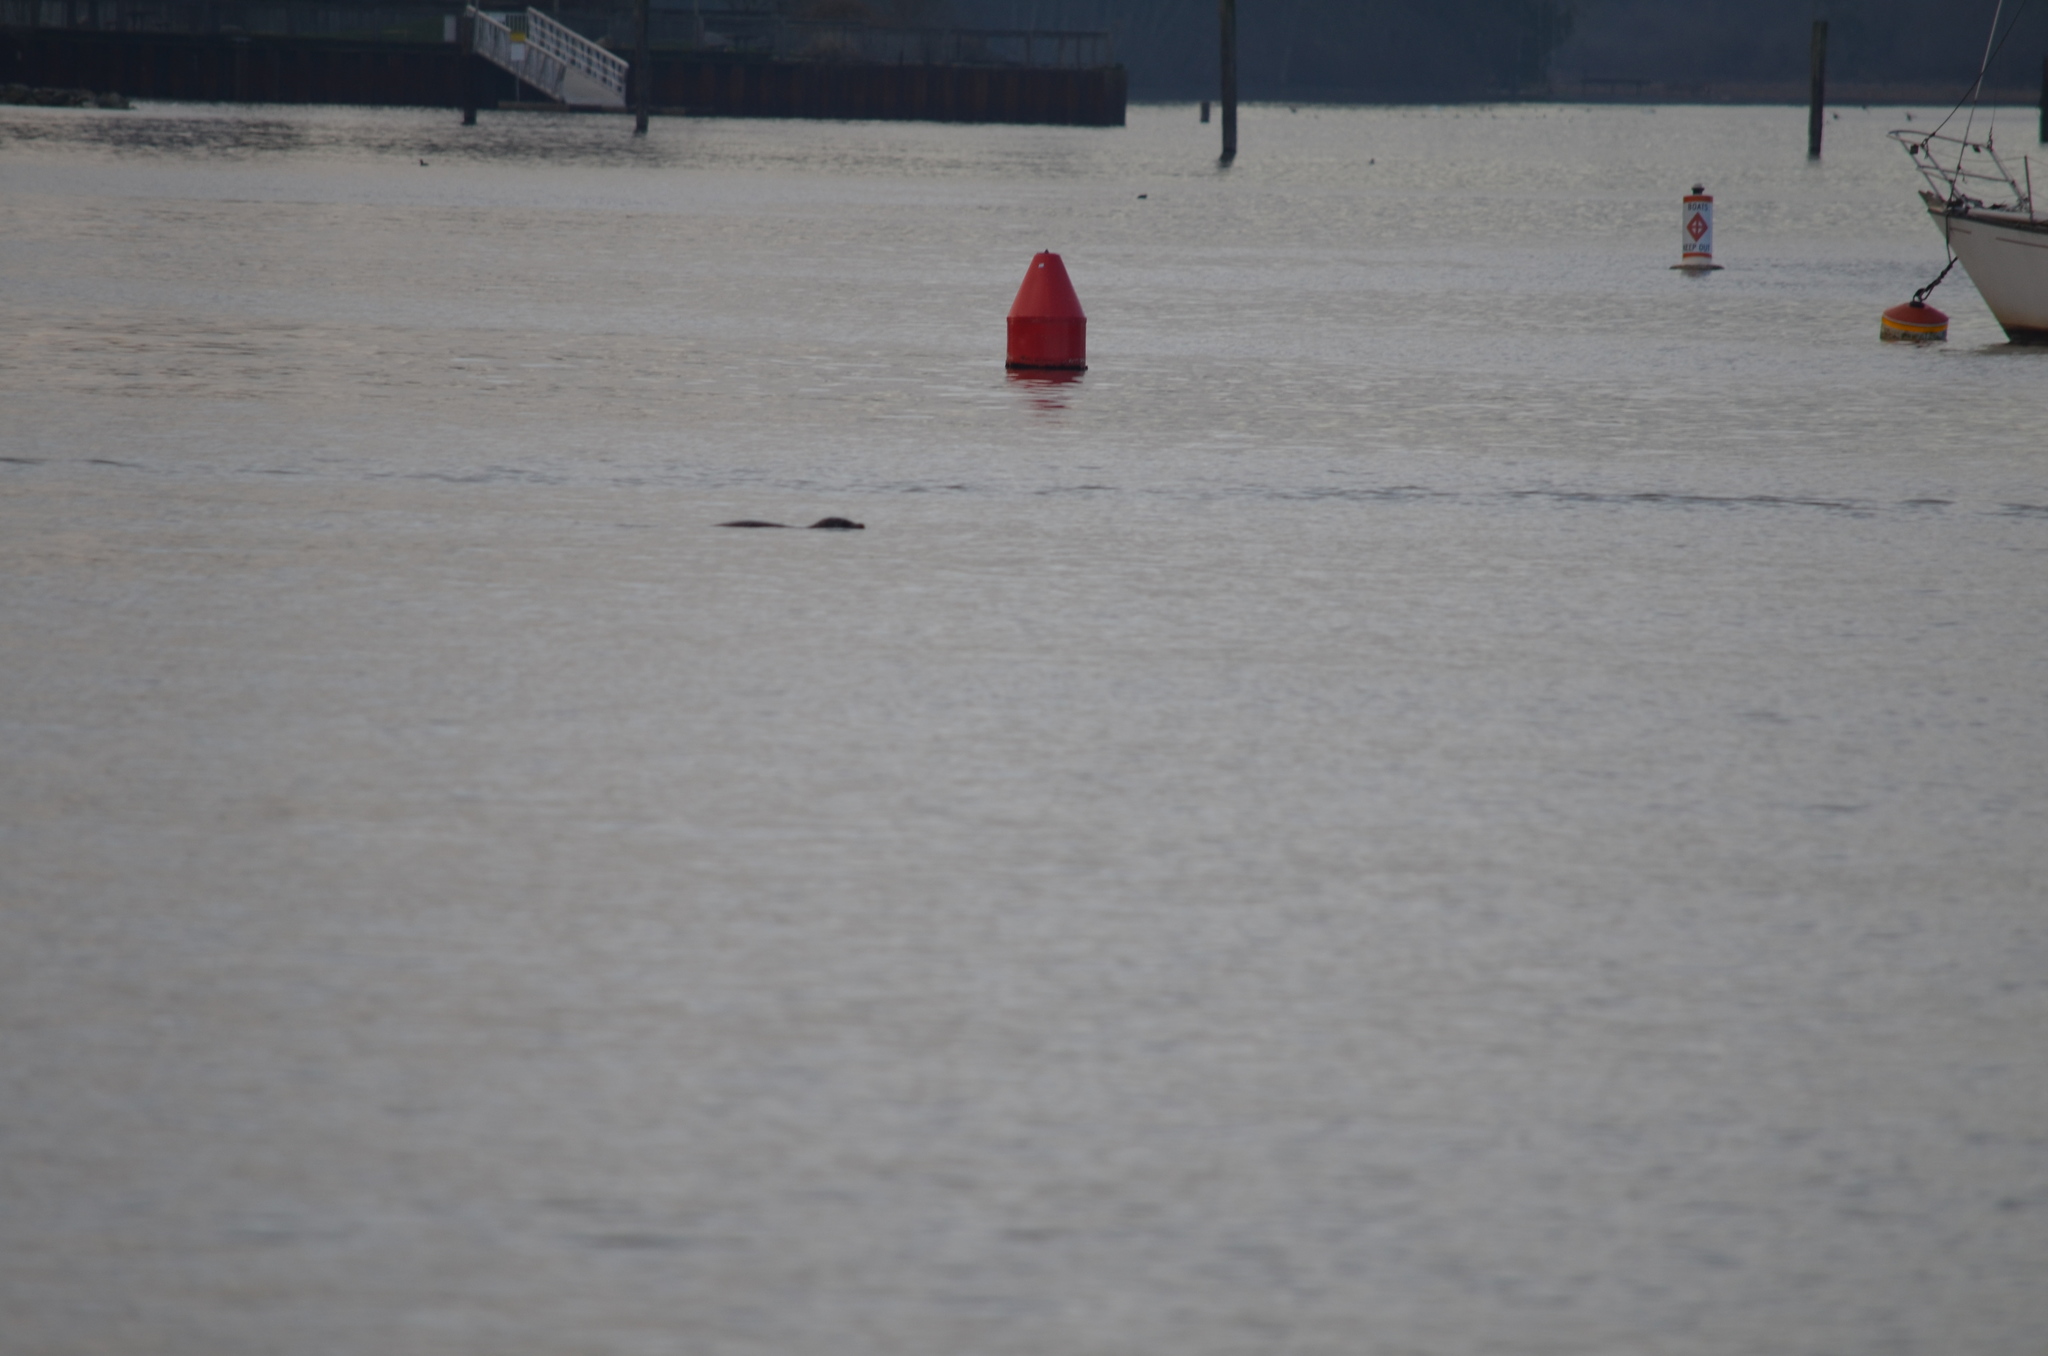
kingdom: Animalia
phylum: Chordata
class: Mammalia
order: Carnivora
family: Phocidae
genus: Phoca
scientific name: Phoca vitulina
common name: Harbor seal
